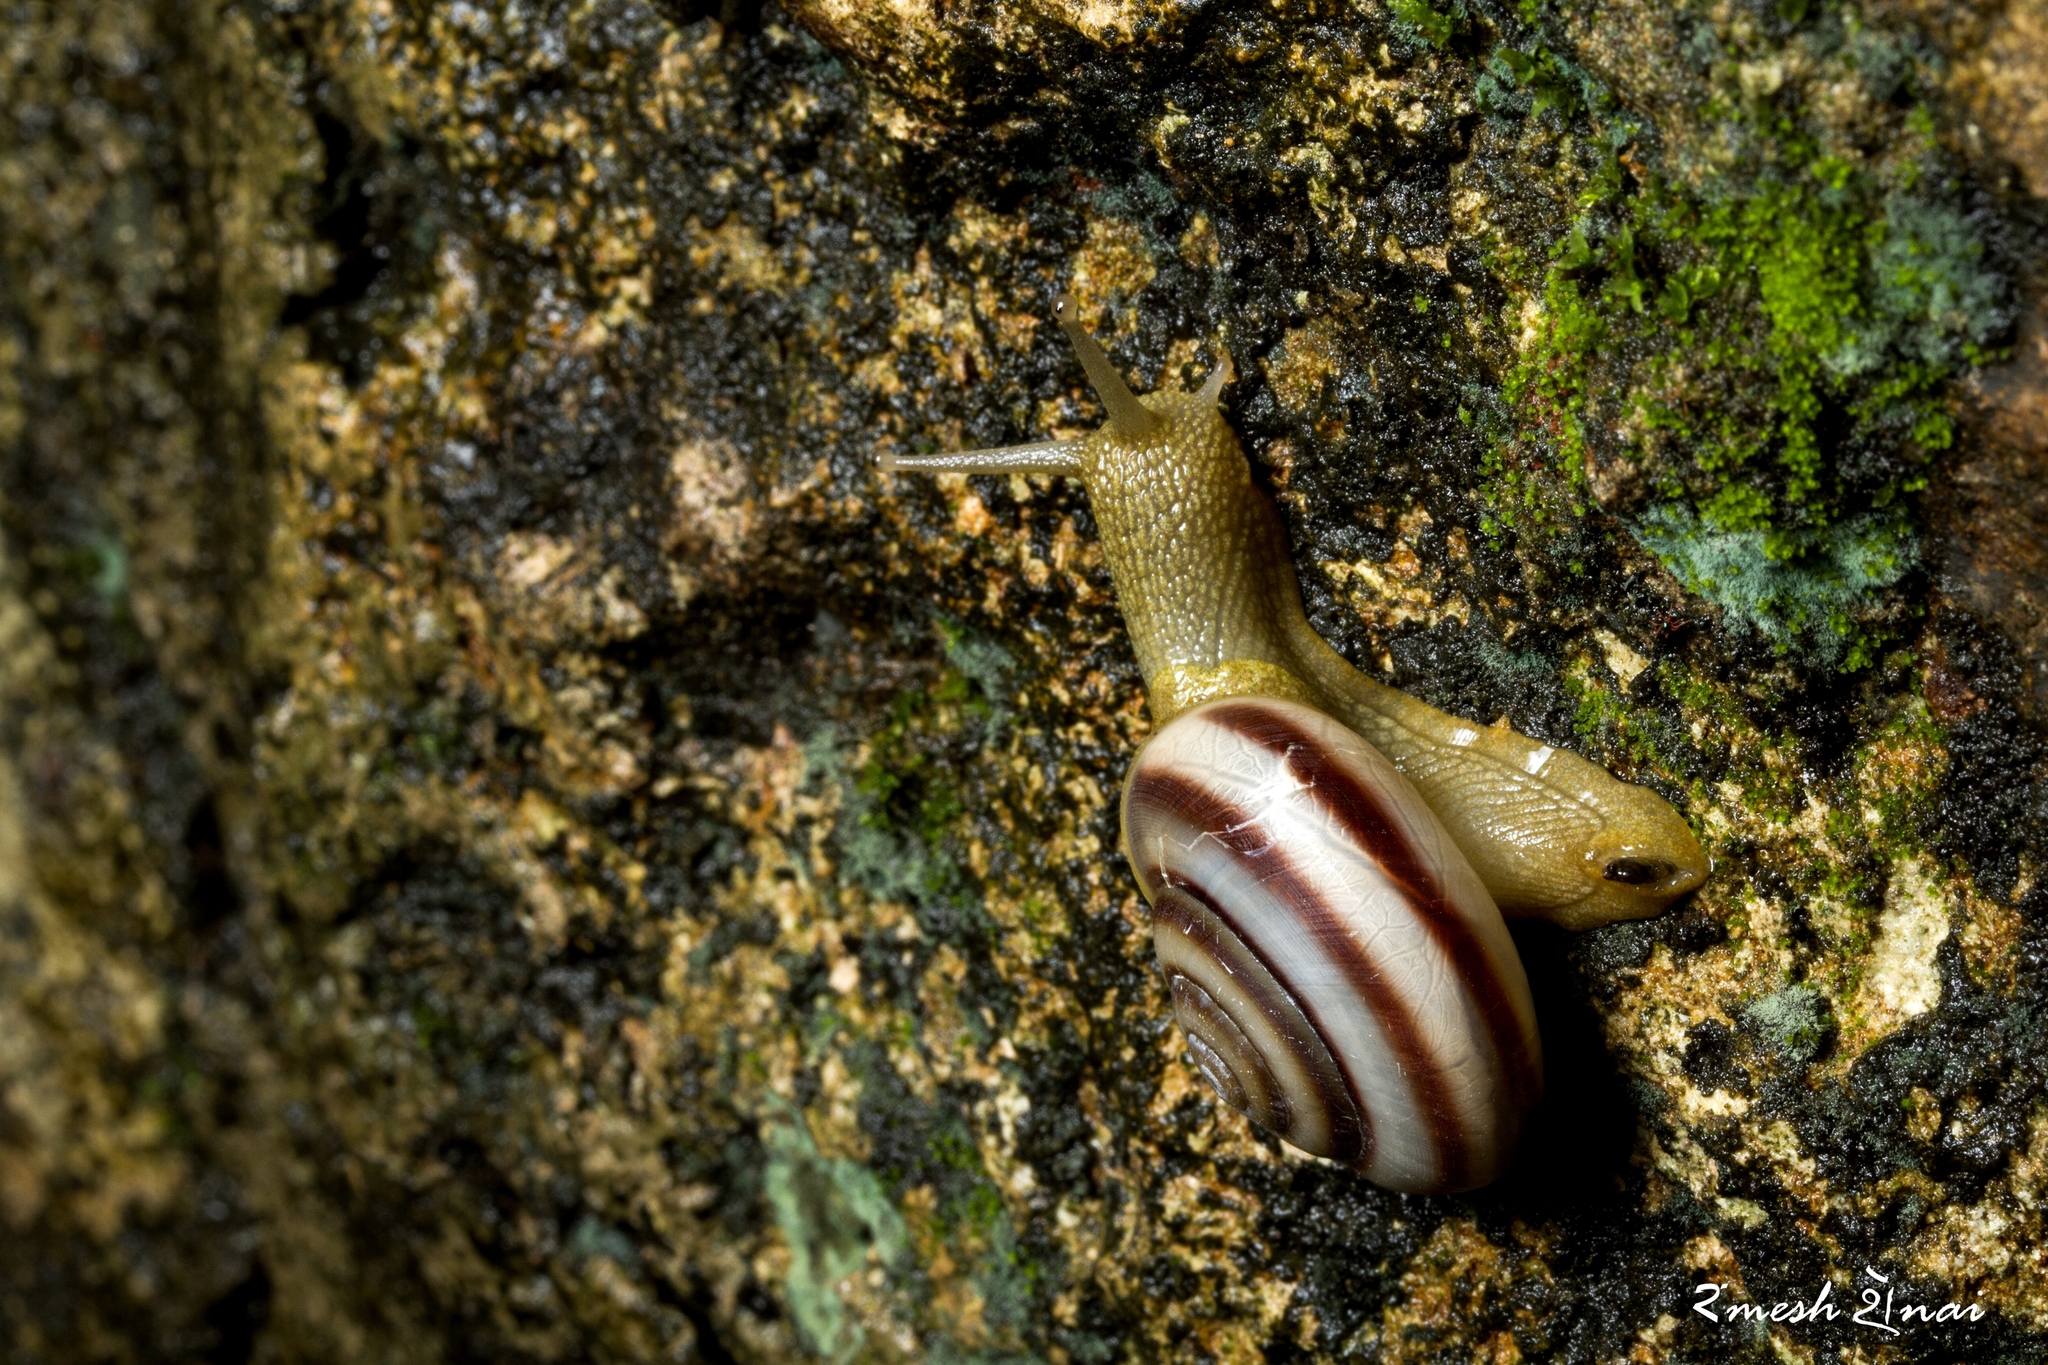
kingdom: Animalia
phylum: Mollusca
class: Gastropoda
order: Stylommatophora
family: Ariophantidae
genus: Ariophanta
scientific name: Ariophanta laevipes
